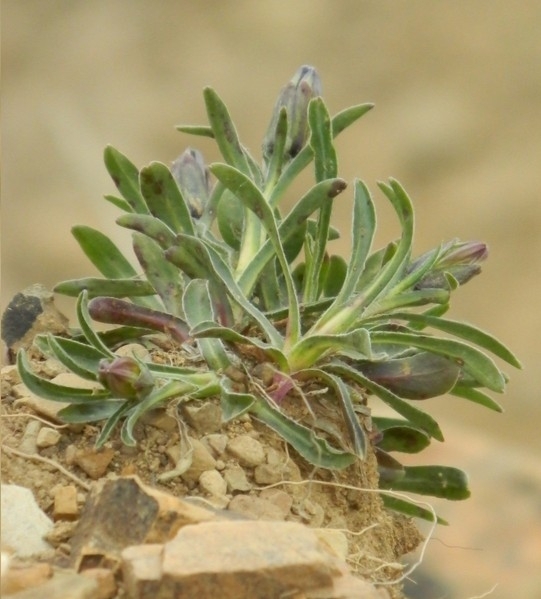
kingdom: Plantae
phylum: Tracheophyta
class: Magnoliopsida
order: Asterales
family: Campanulaceae
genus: Campanula
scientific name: Campanula tridentata
